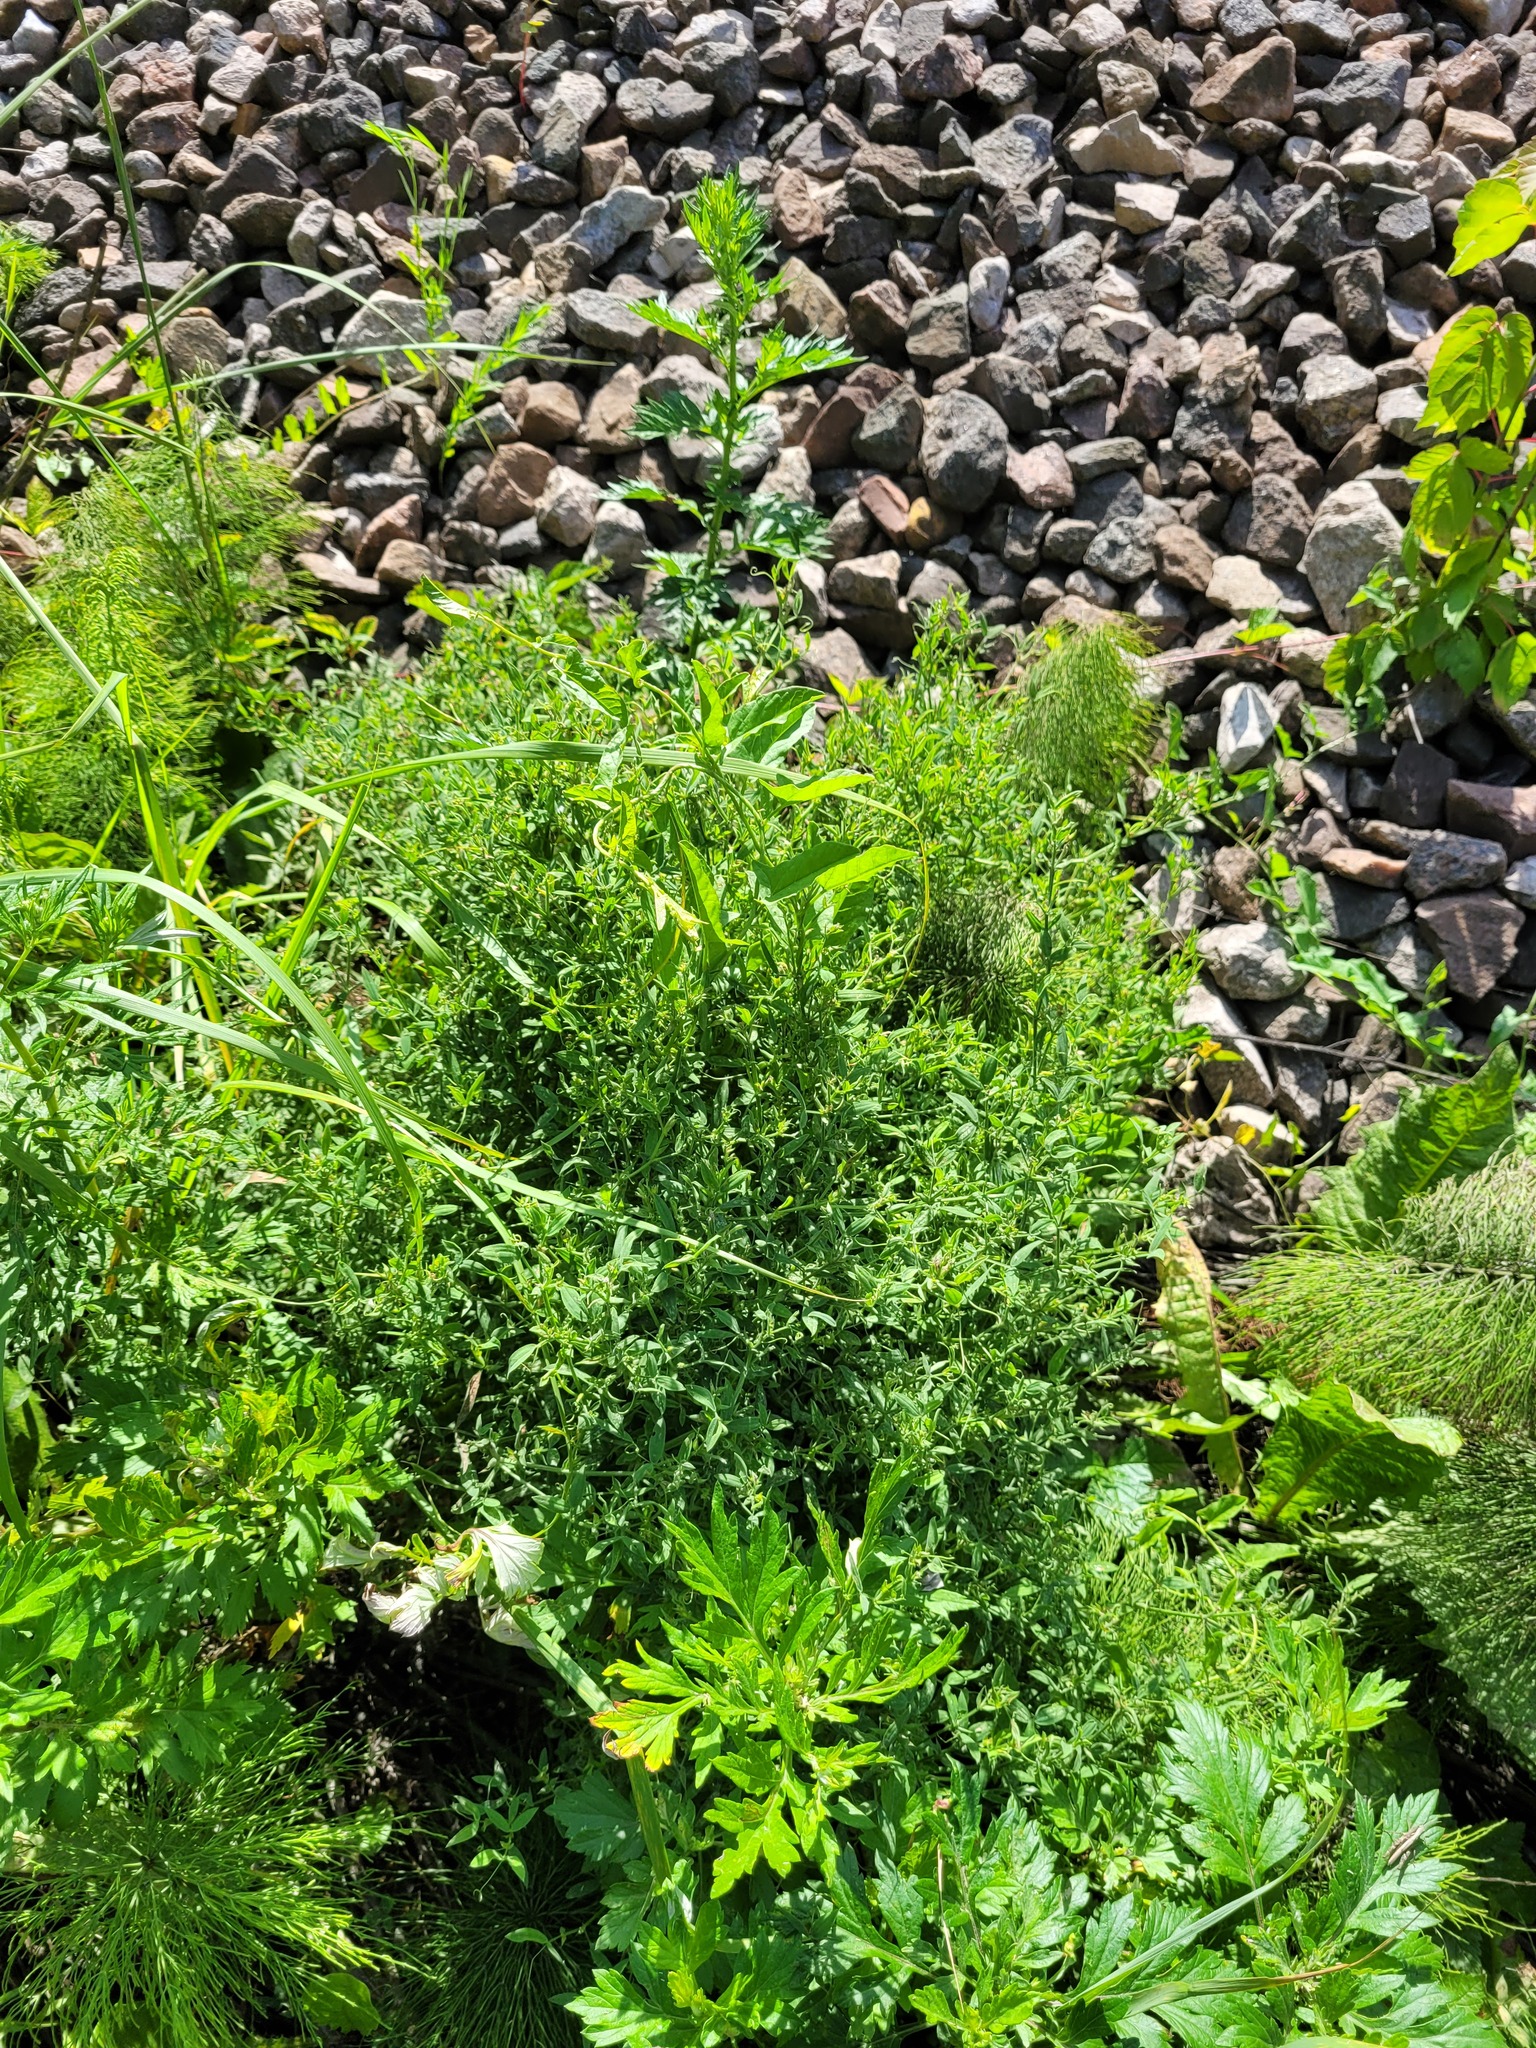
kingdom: Plantae
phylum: Tracheophyta
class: Magnoliopsida
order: Fabales
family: Fabaceae
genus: Lathyrus
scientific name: Lathyrus pratensis
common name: Meadow vetchling
